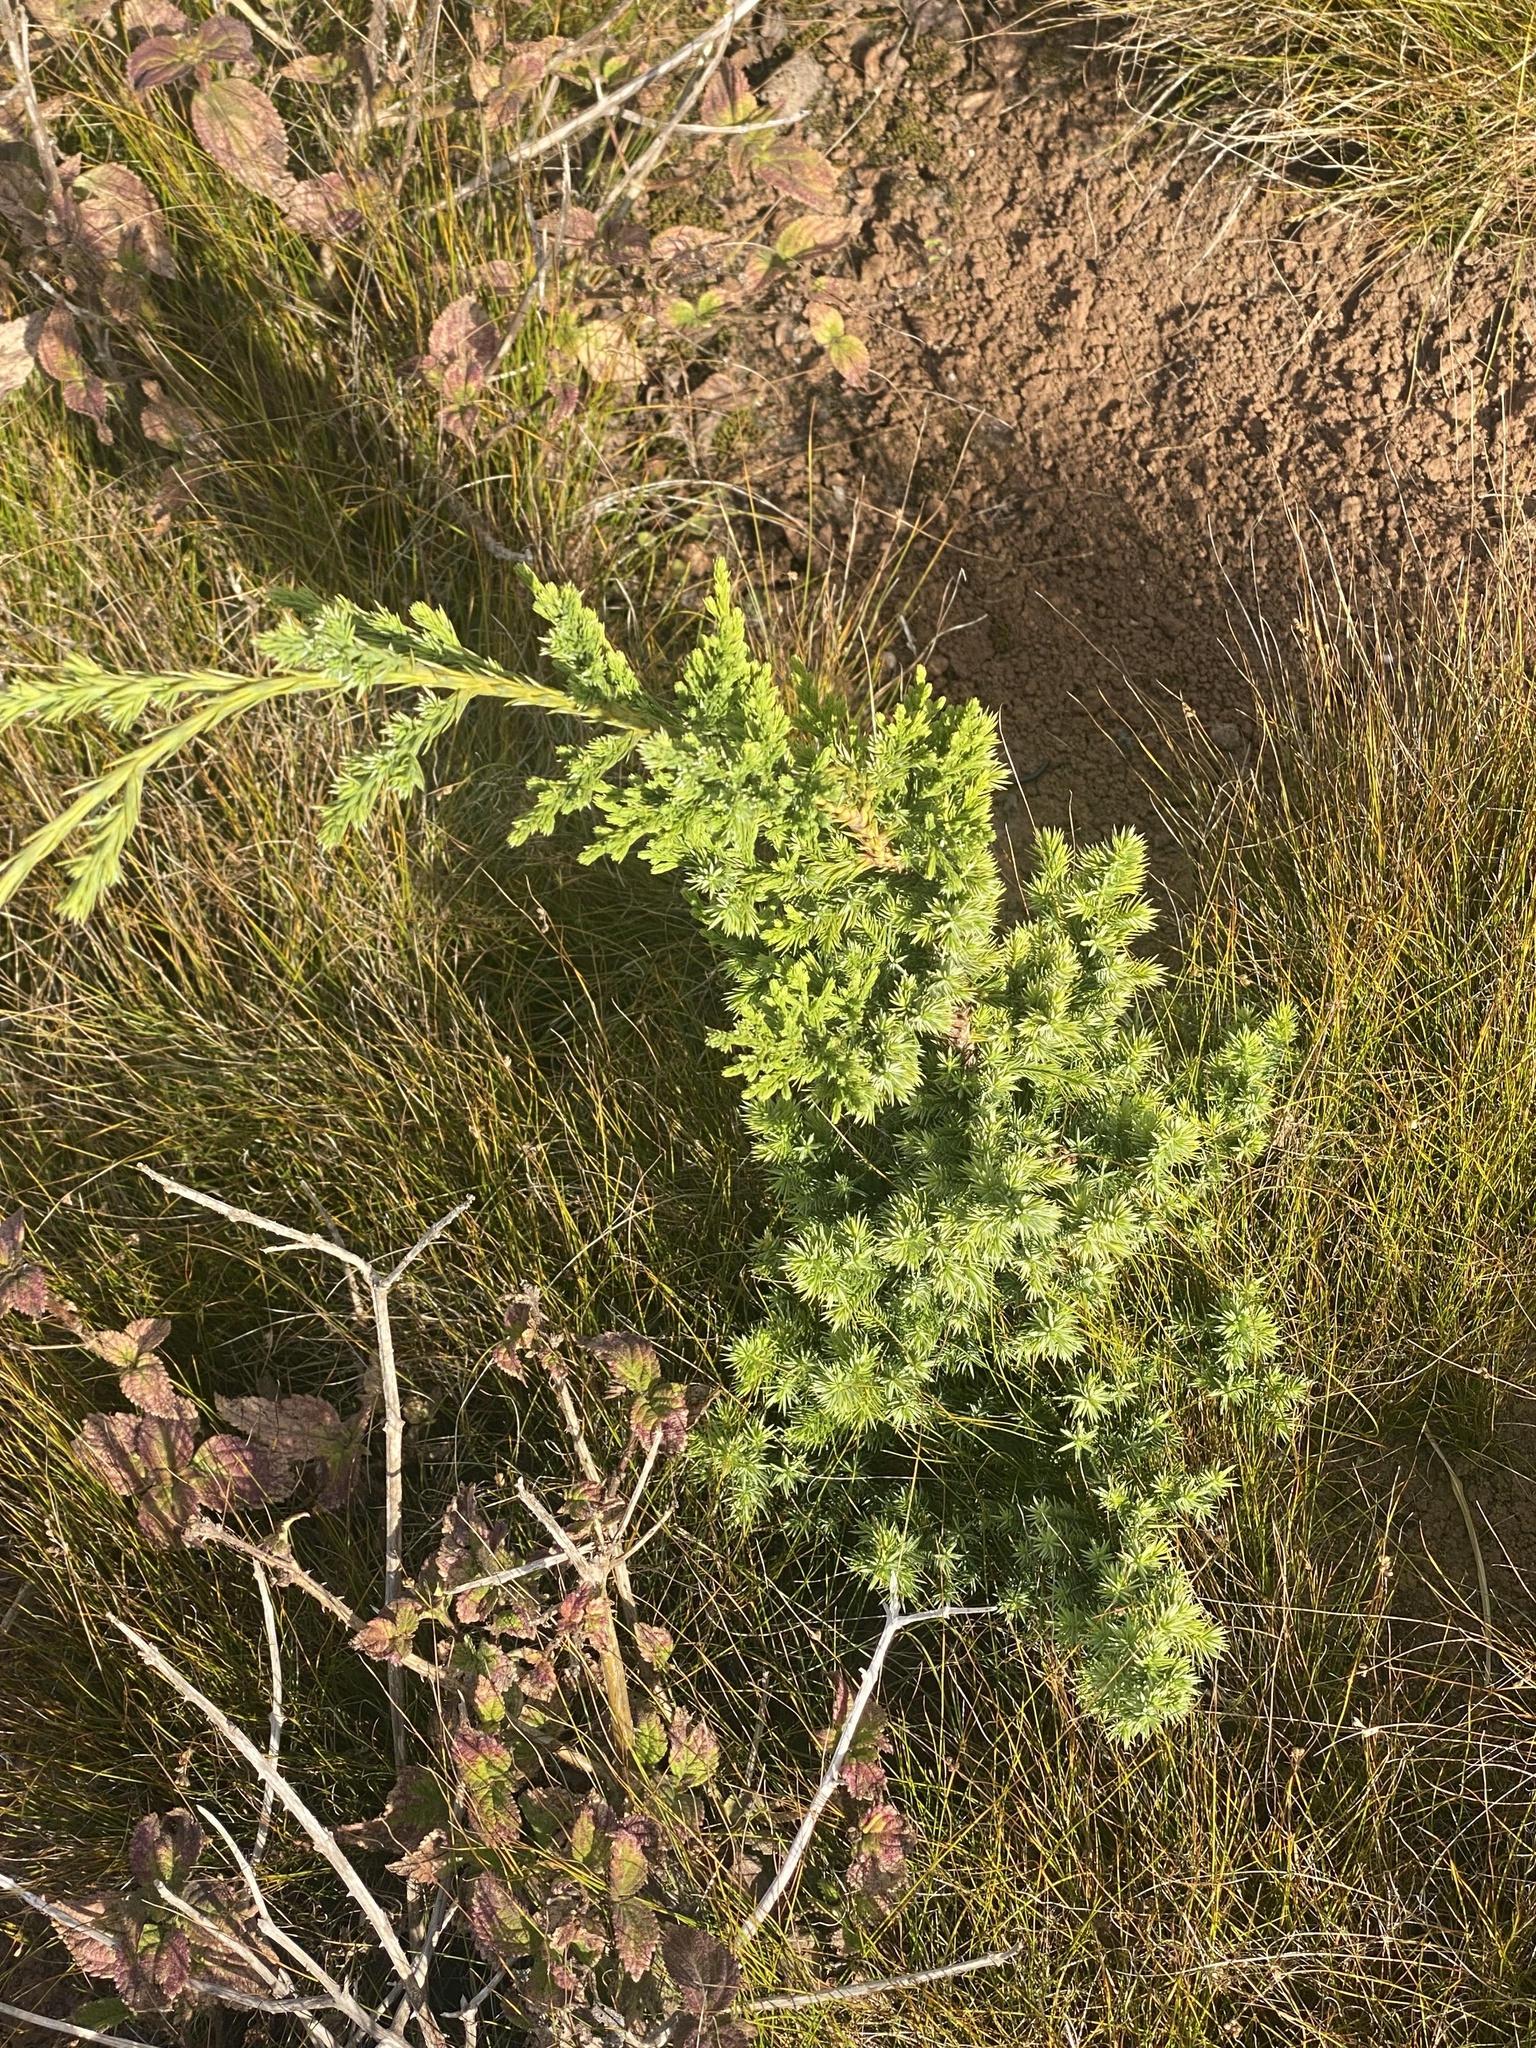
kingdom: Plantae
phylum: Tracheophyta
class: Pinopsida
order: Pinales
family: Cupressaceae
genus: Juniperus
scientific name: Juniperus bermudiana
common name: Bermuda juniper
